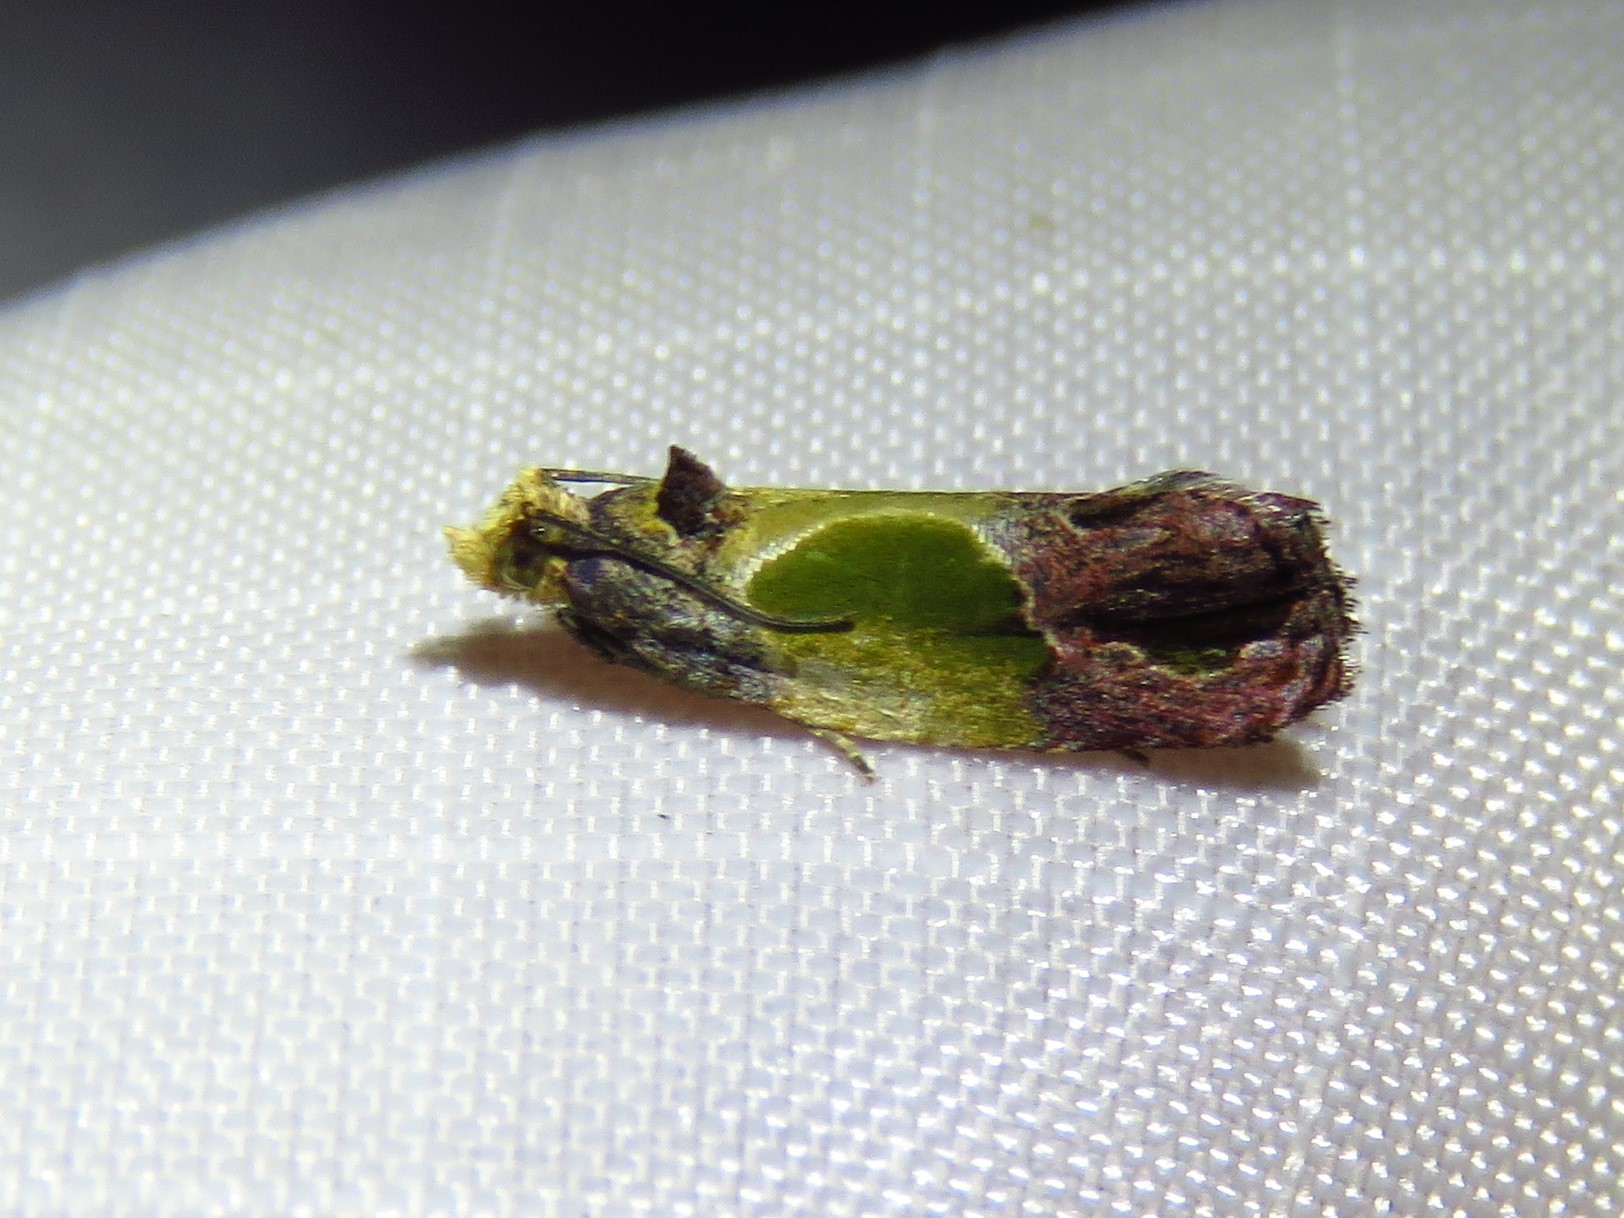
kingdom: Animalia
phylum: Arthropoda
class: Insecta
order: Lepidoptera
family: Tortricidae
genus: Eumarozia
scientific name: Eumarozia malachitana
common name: Sculptured moth
